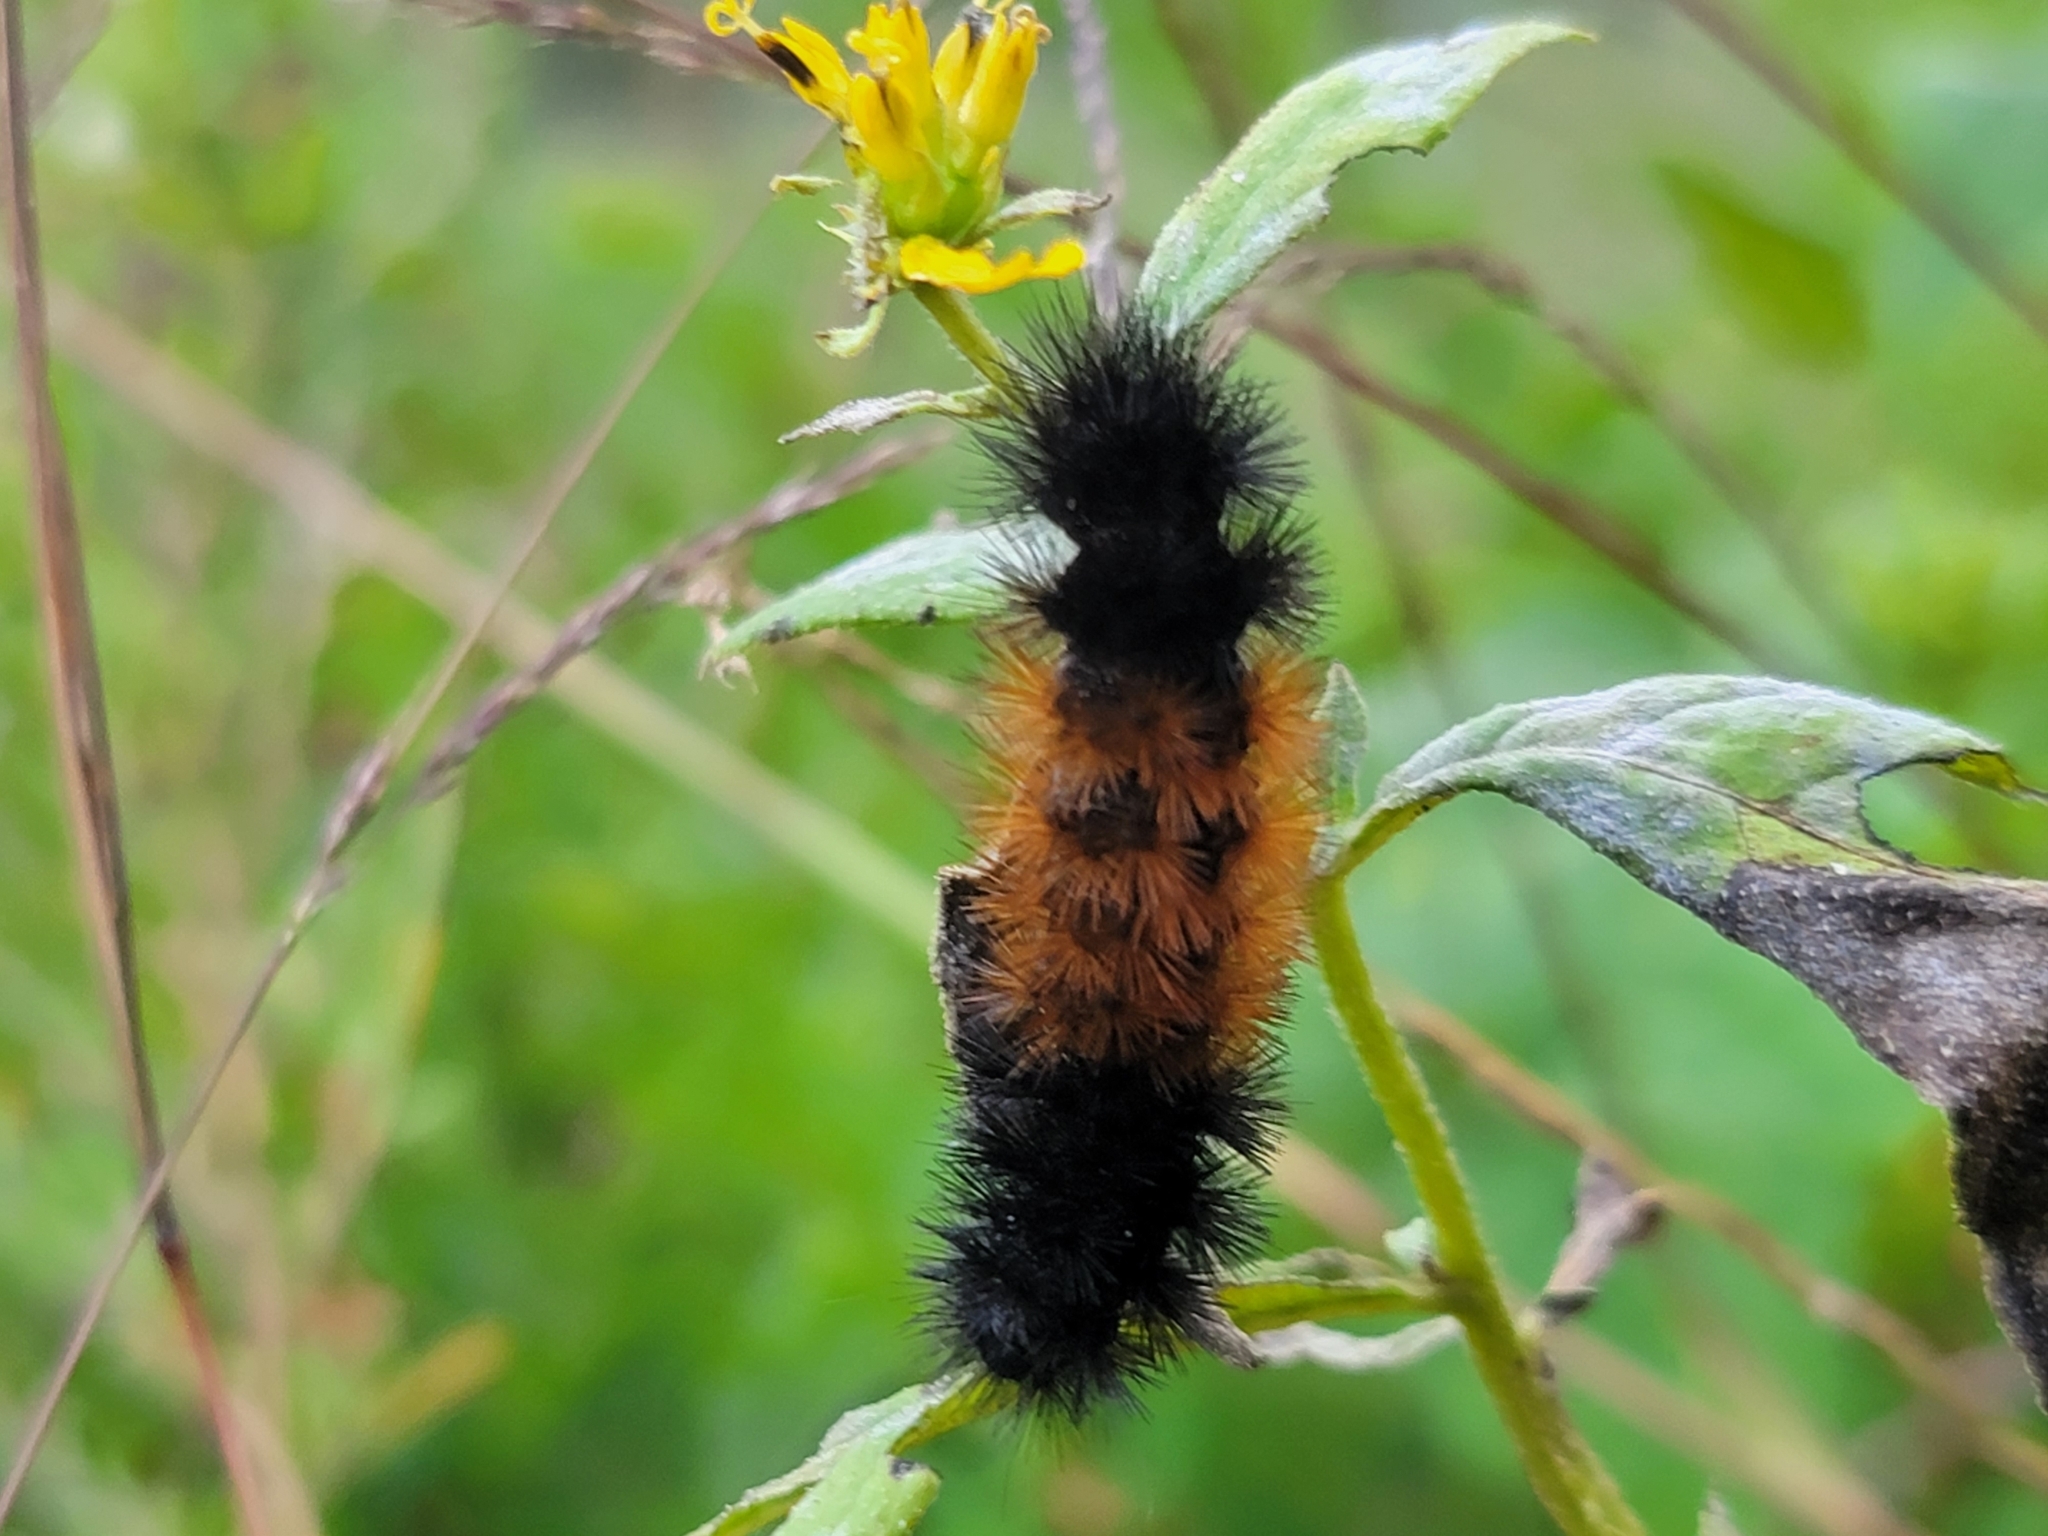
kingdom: Animalia
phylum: Arthropoda
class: Insecta
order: Lepidoptera
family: Erebidae
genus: Pyrrharctia
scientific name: Pyrrharctia isabella
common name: Isabella tiger moth
